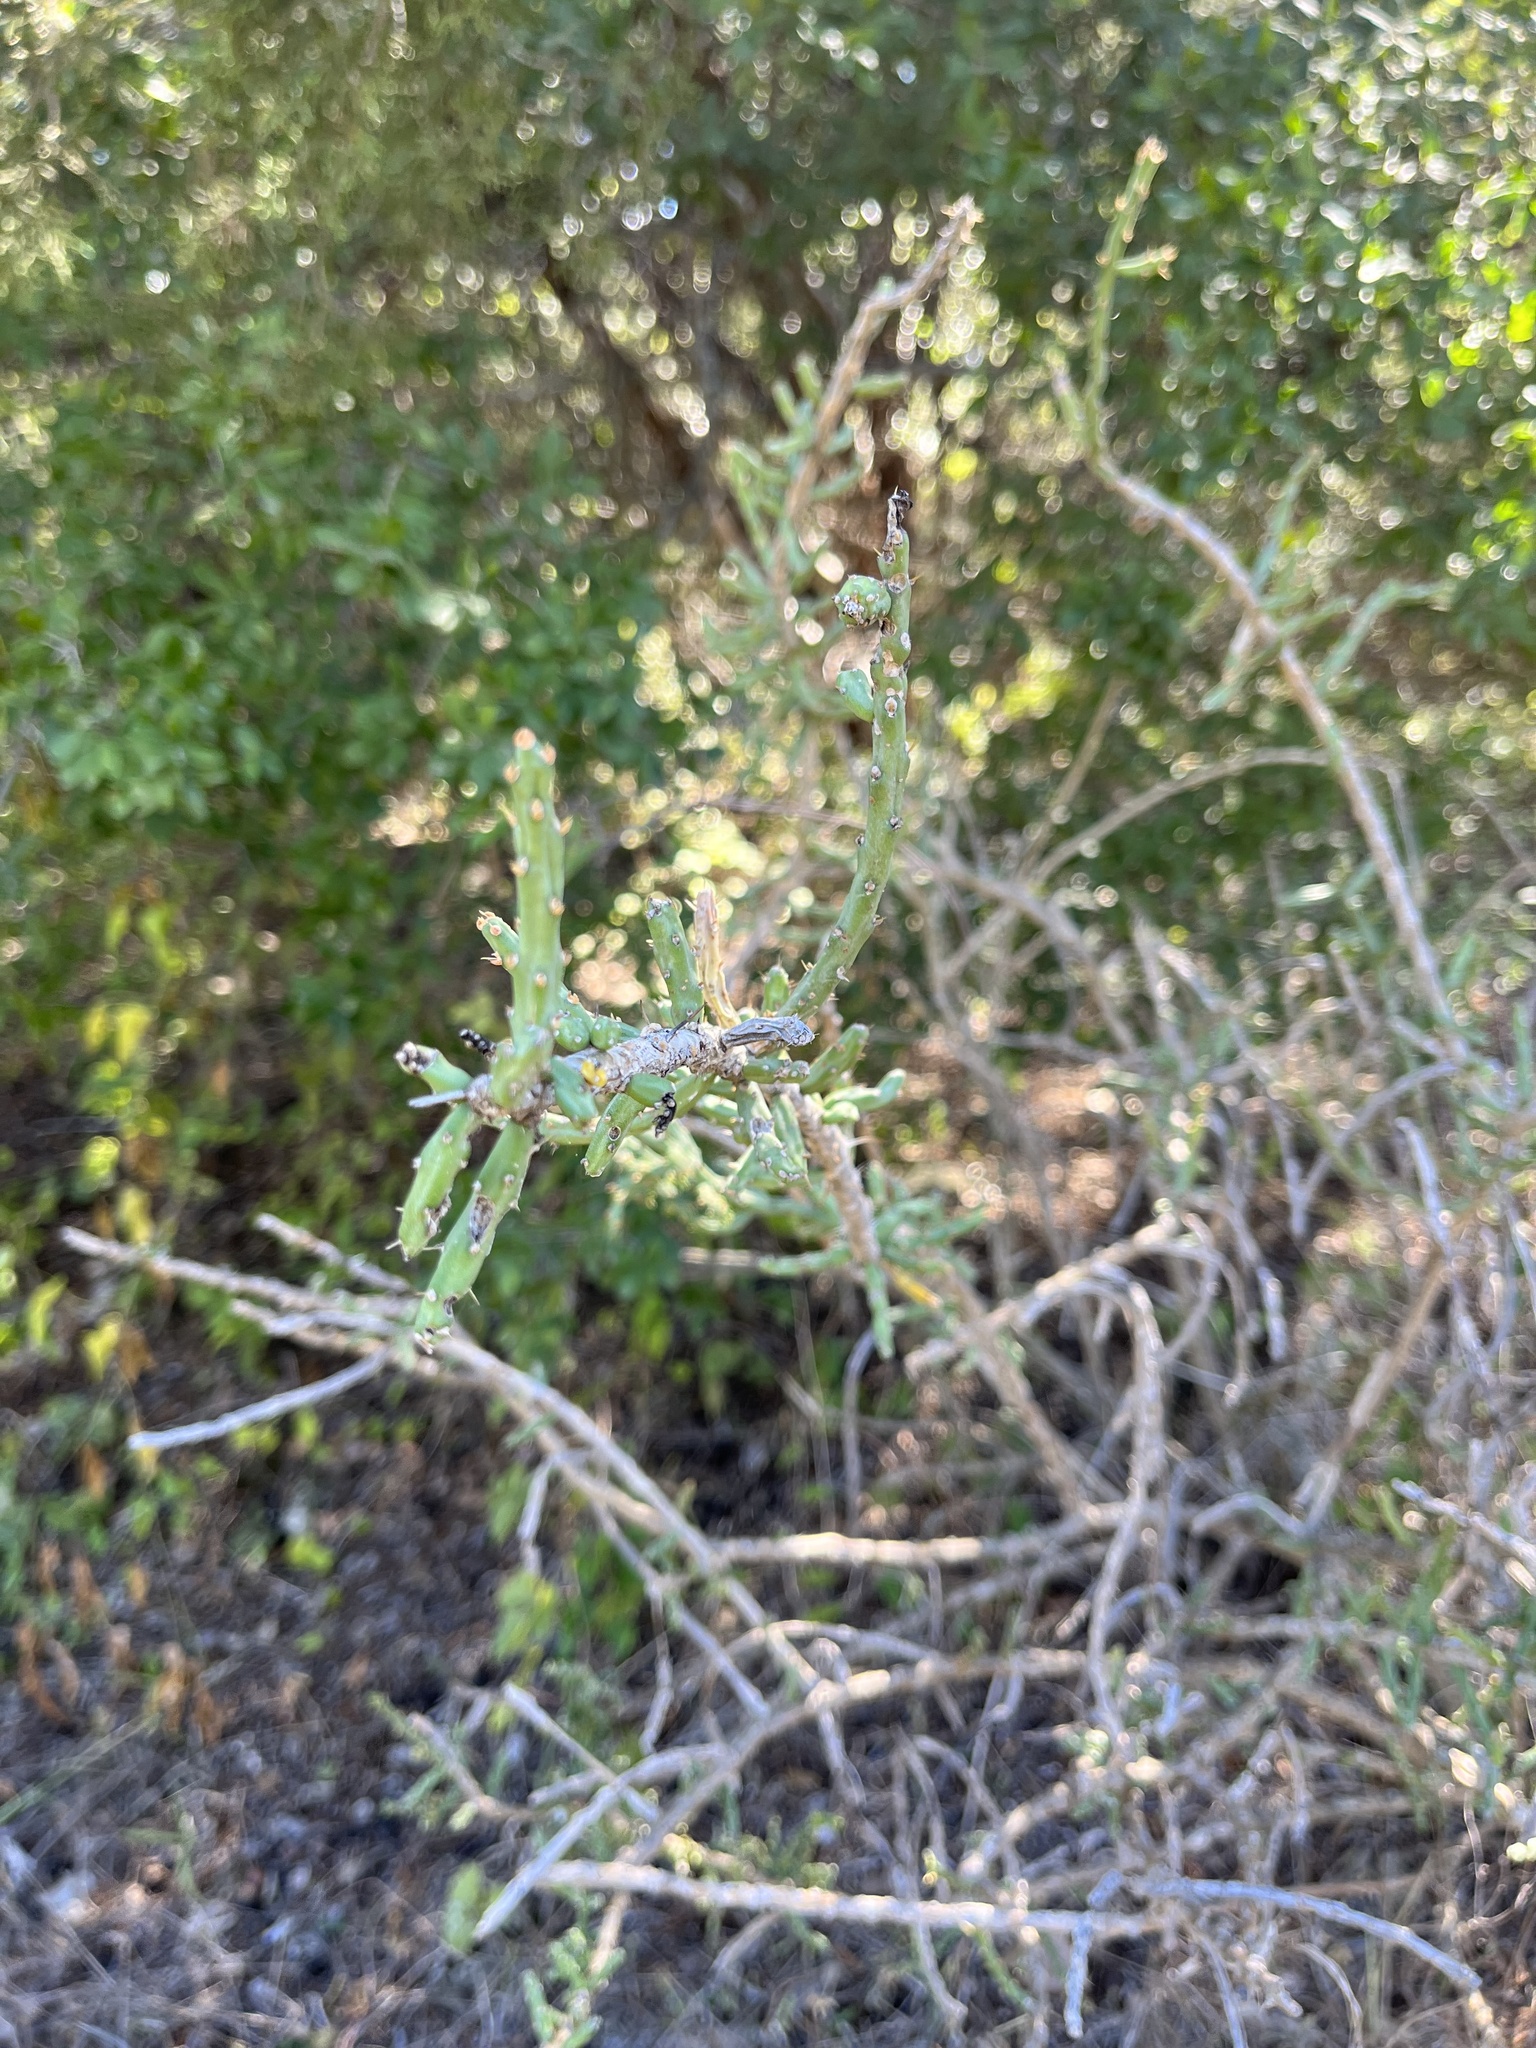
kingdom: Plantae
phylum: Tracheophyta
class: Magnoliopsida
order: Caryophyllales
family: Cactaceae
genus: Cylindropuntia
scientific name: Cylindropuntia leptocaulis
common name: Christmas cactus
